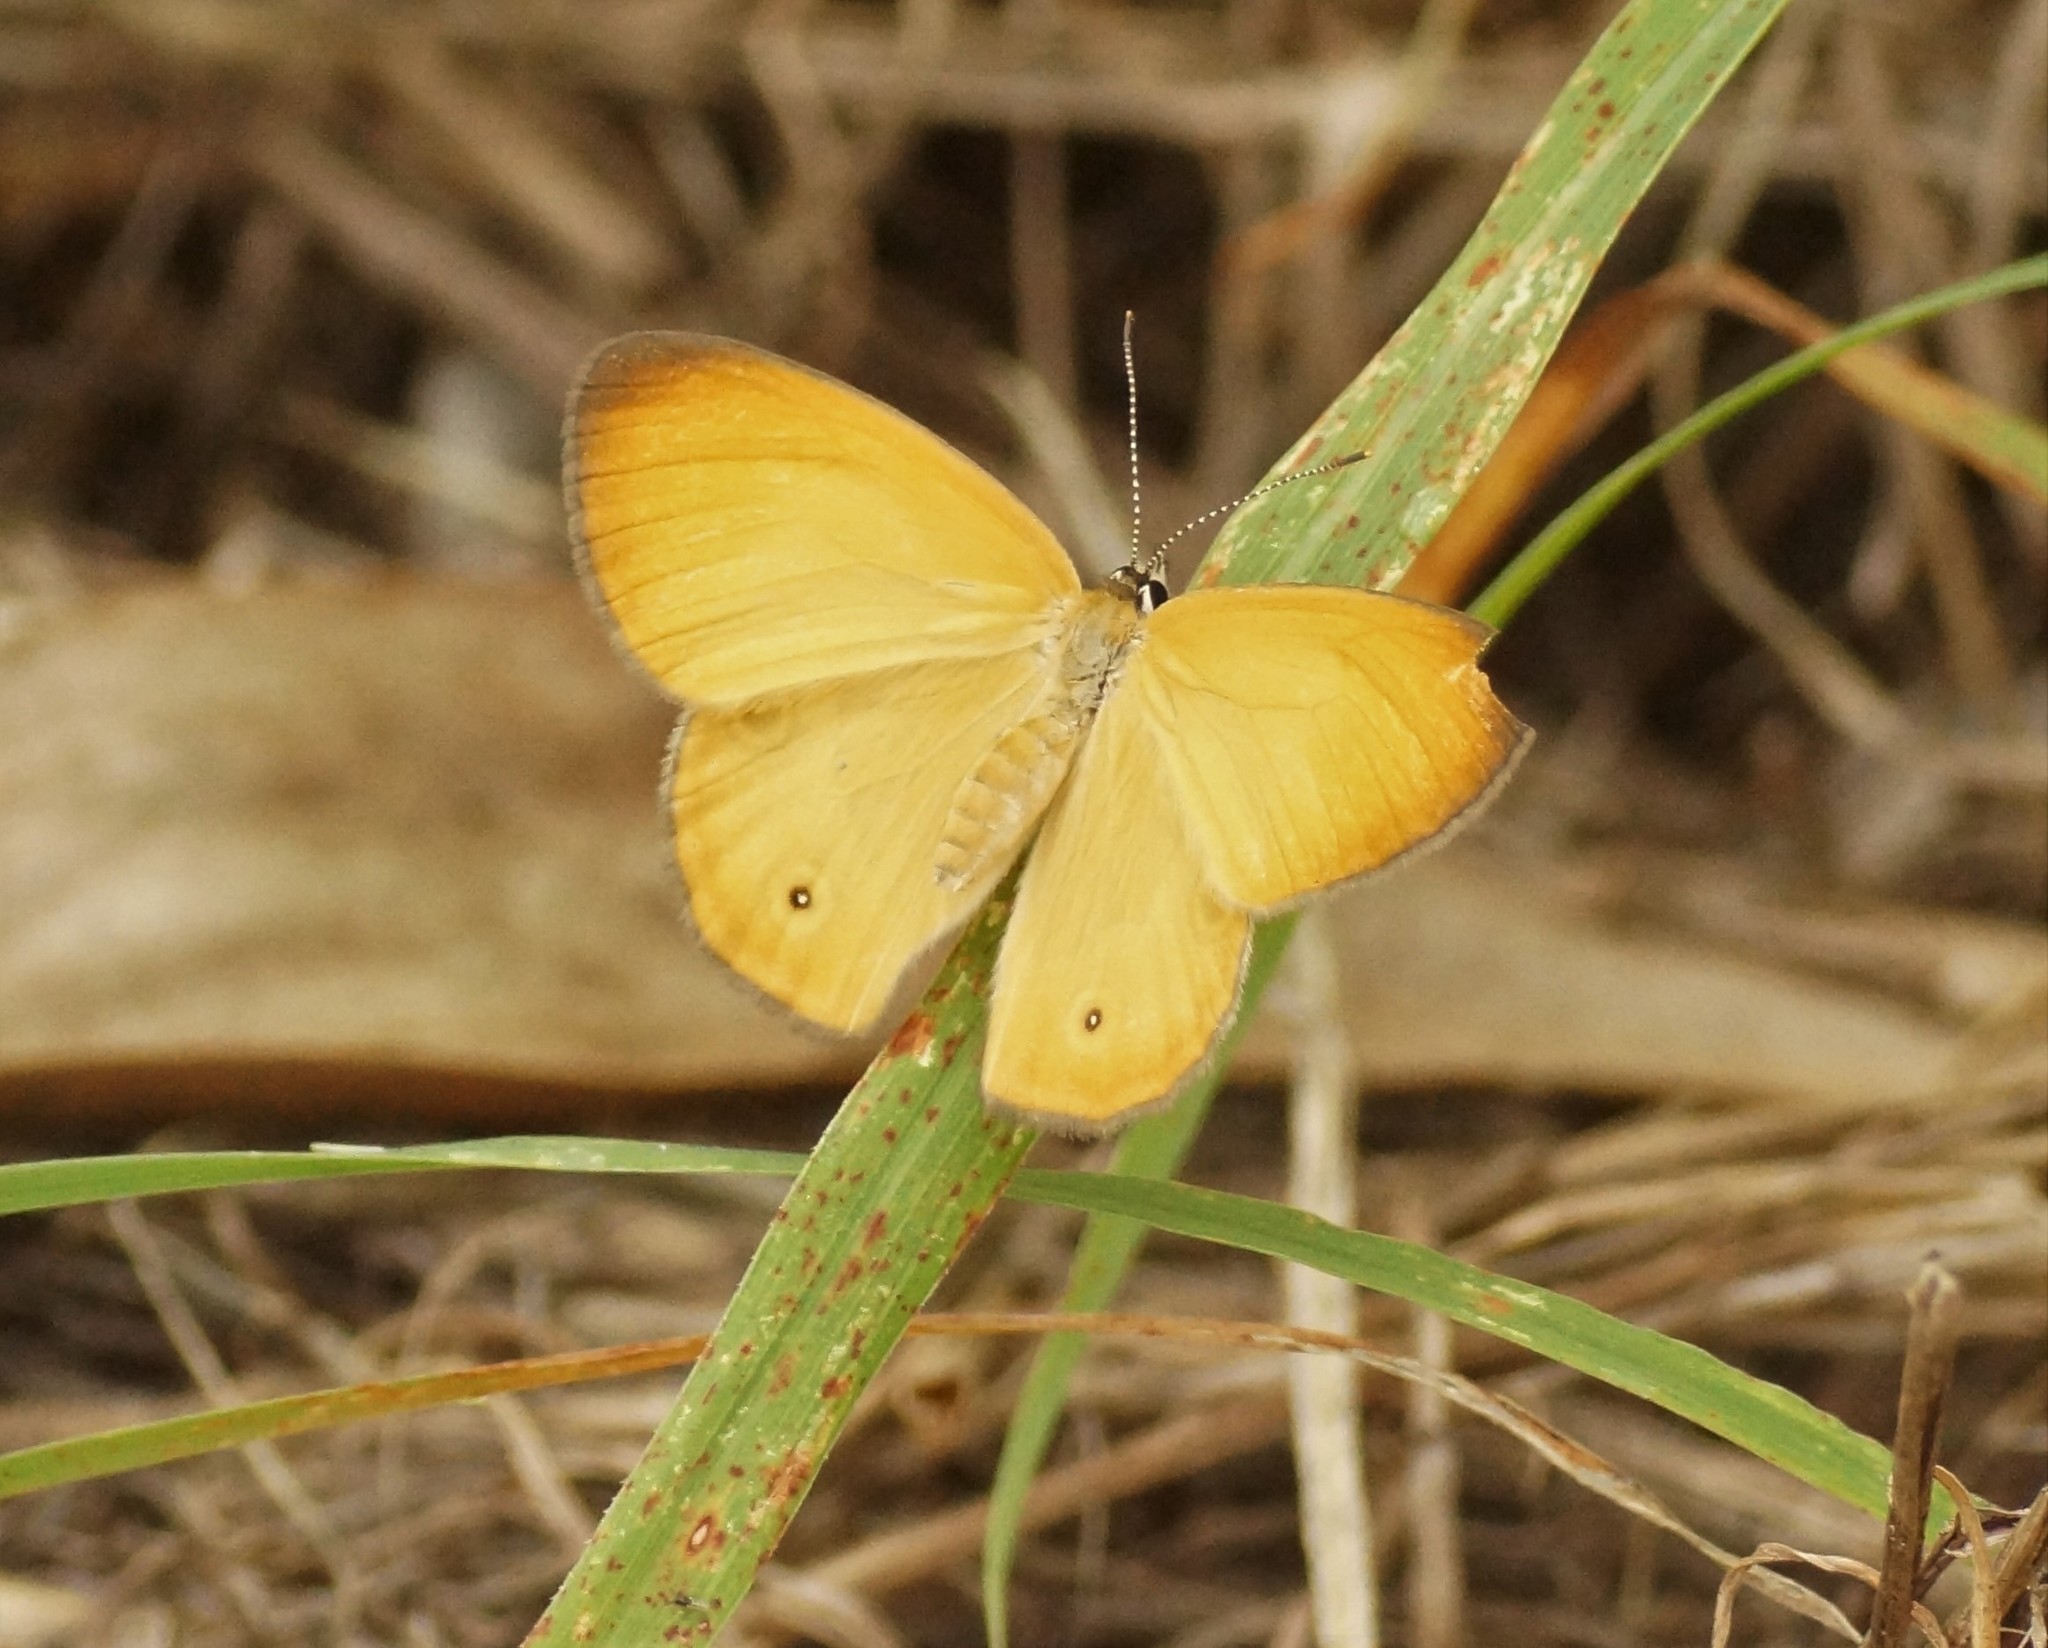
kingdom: Animalia
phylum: Arthropoda
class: Insecta
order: Lepidoptera
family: Nymphalidae
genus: Hypocysta
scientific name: Hypocysta adiante
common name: Orange ringlet
